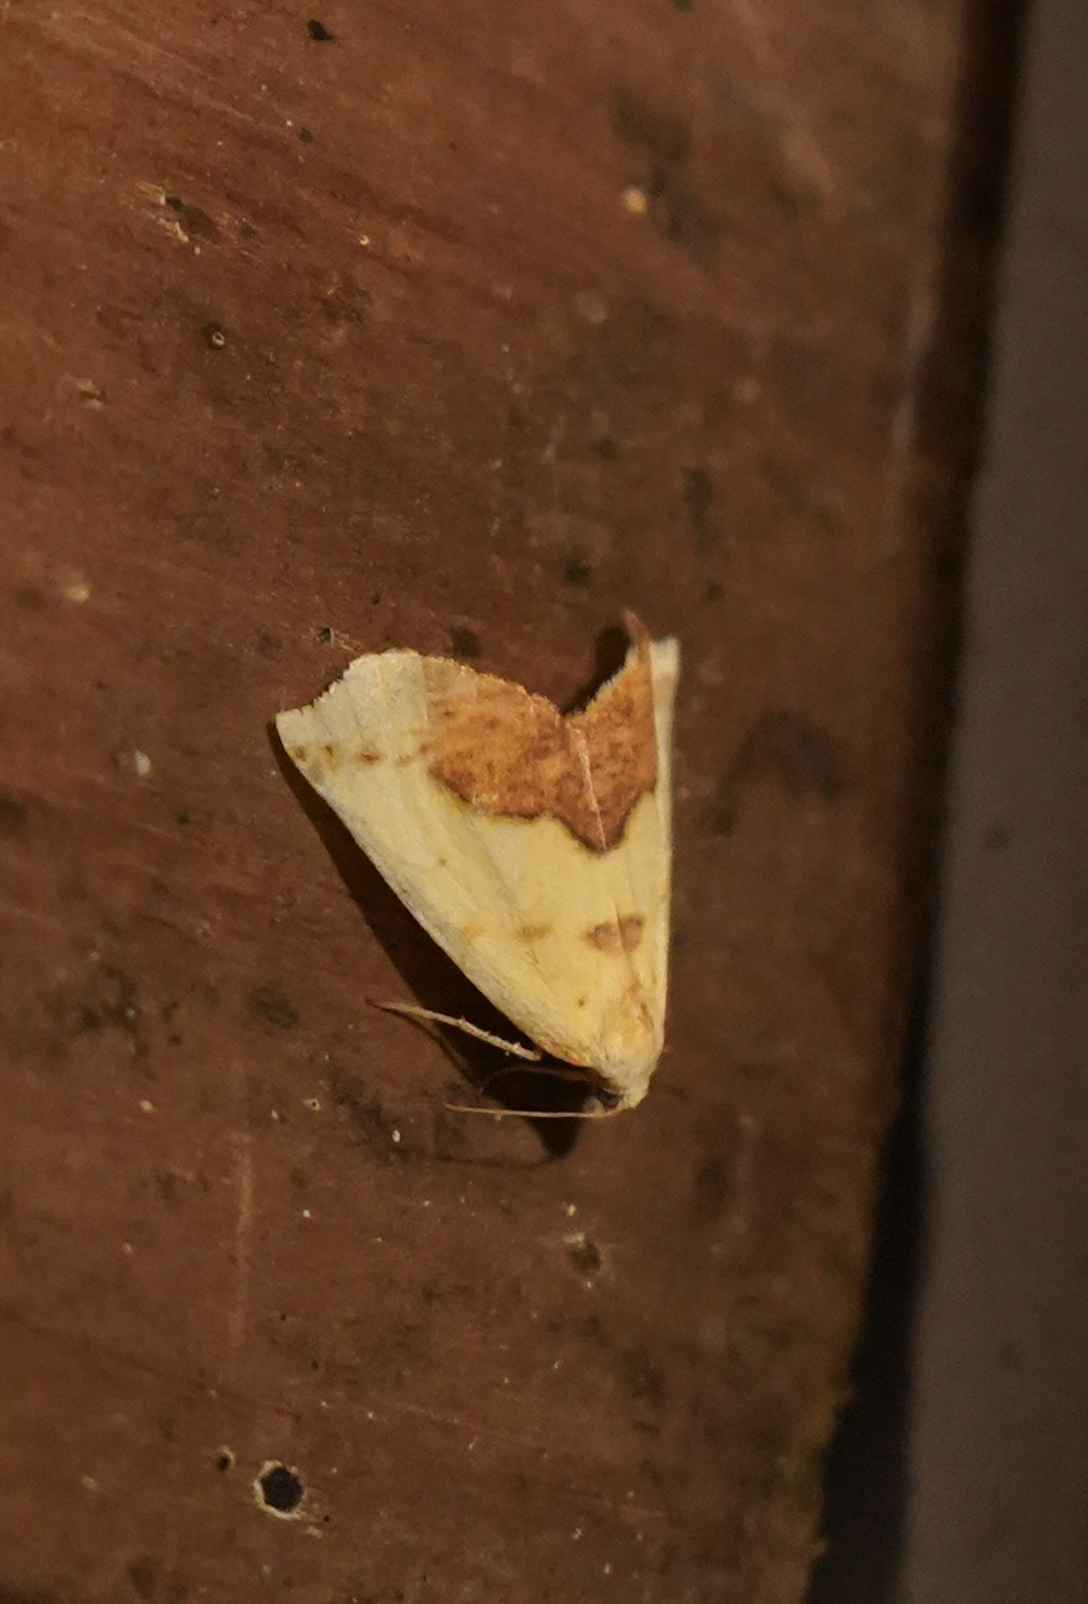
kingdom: Animalia
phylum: Arthropoda
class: Insecta
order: Lepidoptera
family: Geometridae
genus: Sicya
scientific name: Sicya macularia
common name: Sharp-lined yellow
